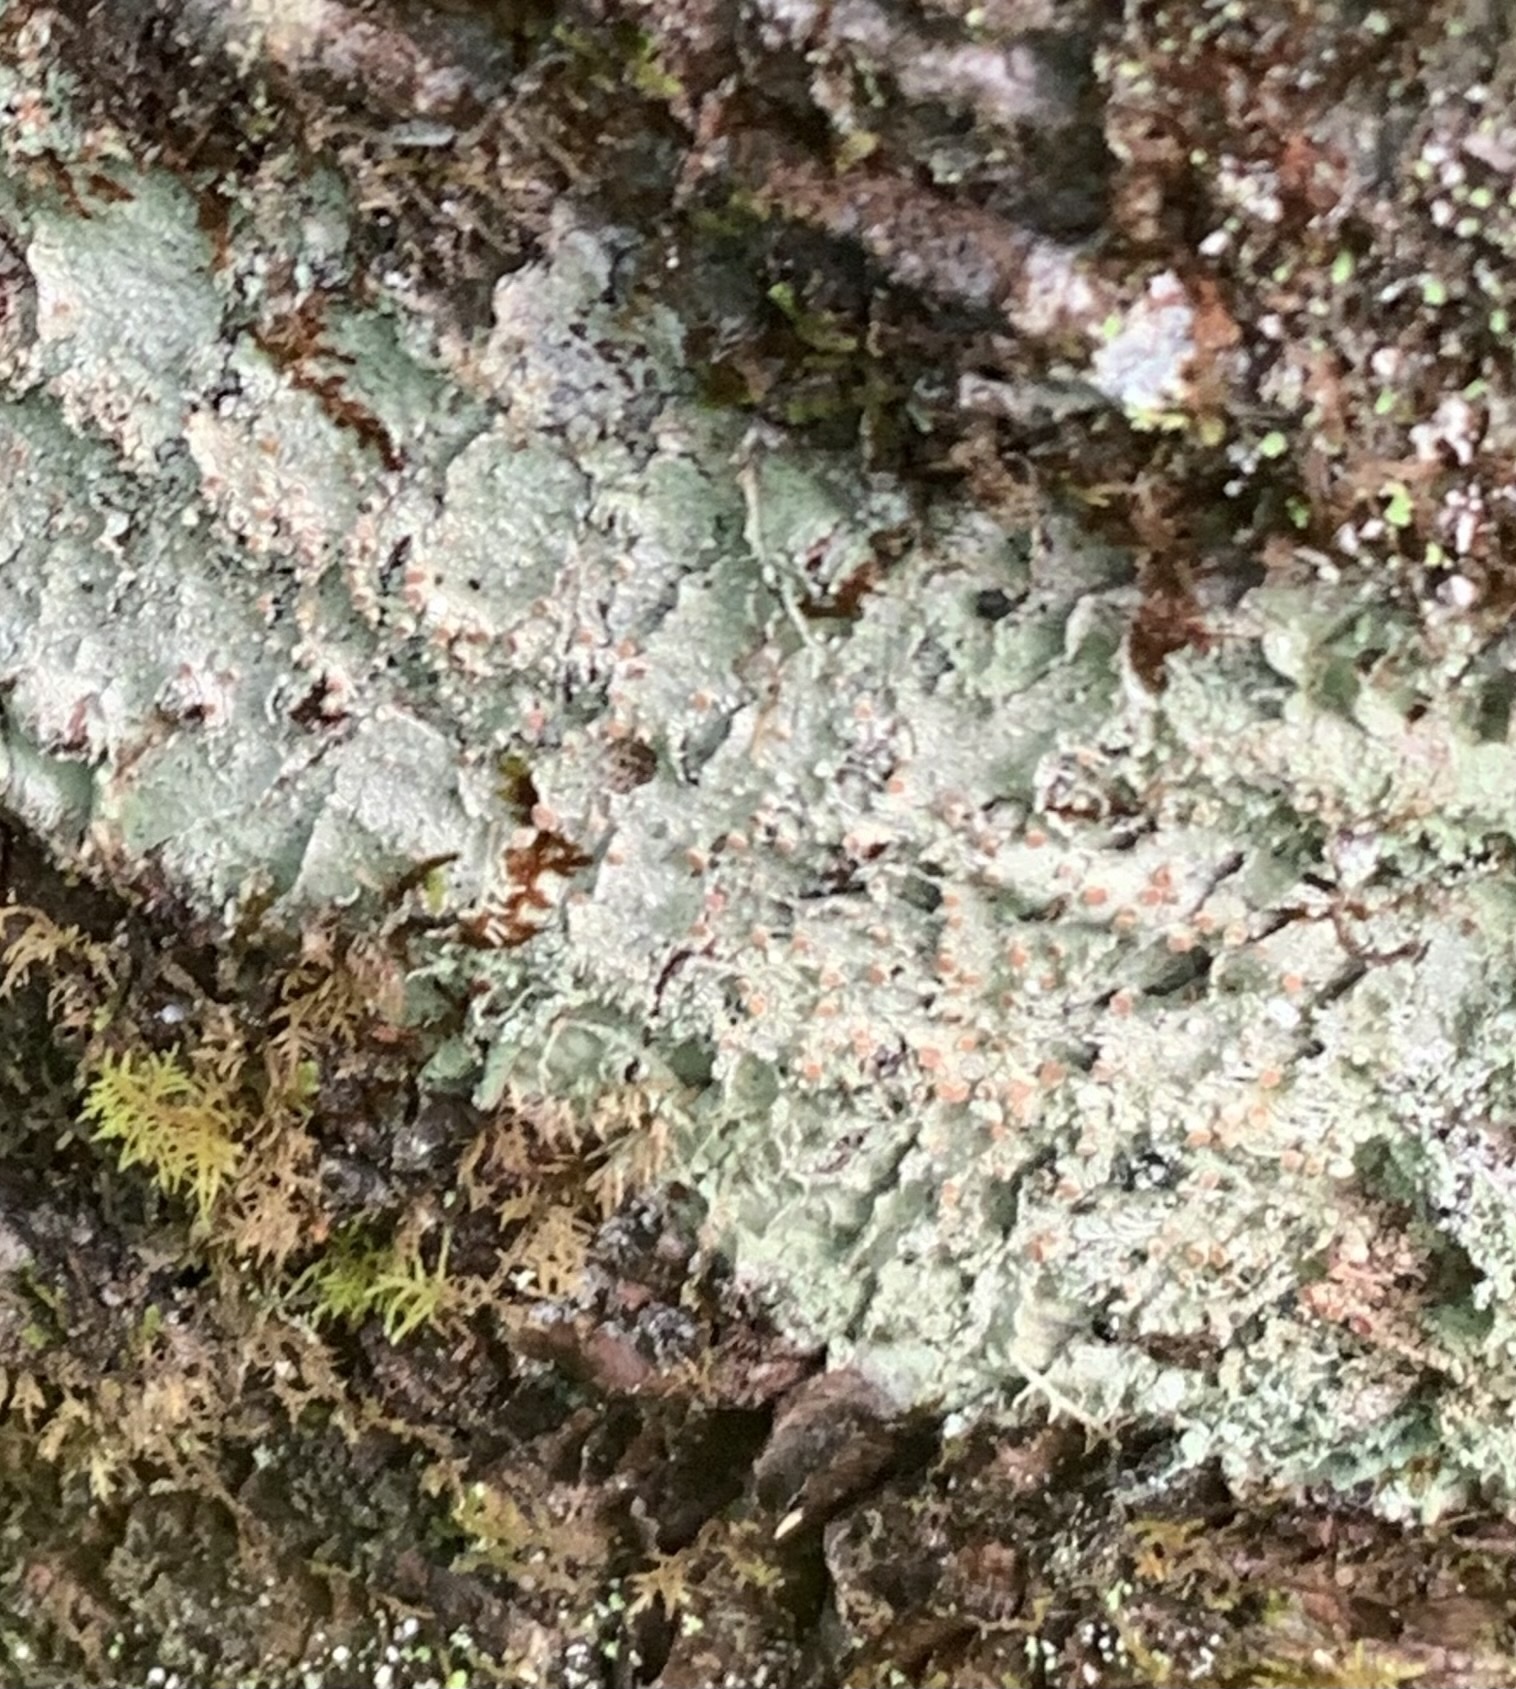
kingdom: Fungi
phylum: Ascomycota
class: Lecanoromycetes
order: Pertusariales
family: Icmadophilaceae
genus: Dibaeis
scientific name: Dibaeis baeomyces
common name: Pink earth lichen
